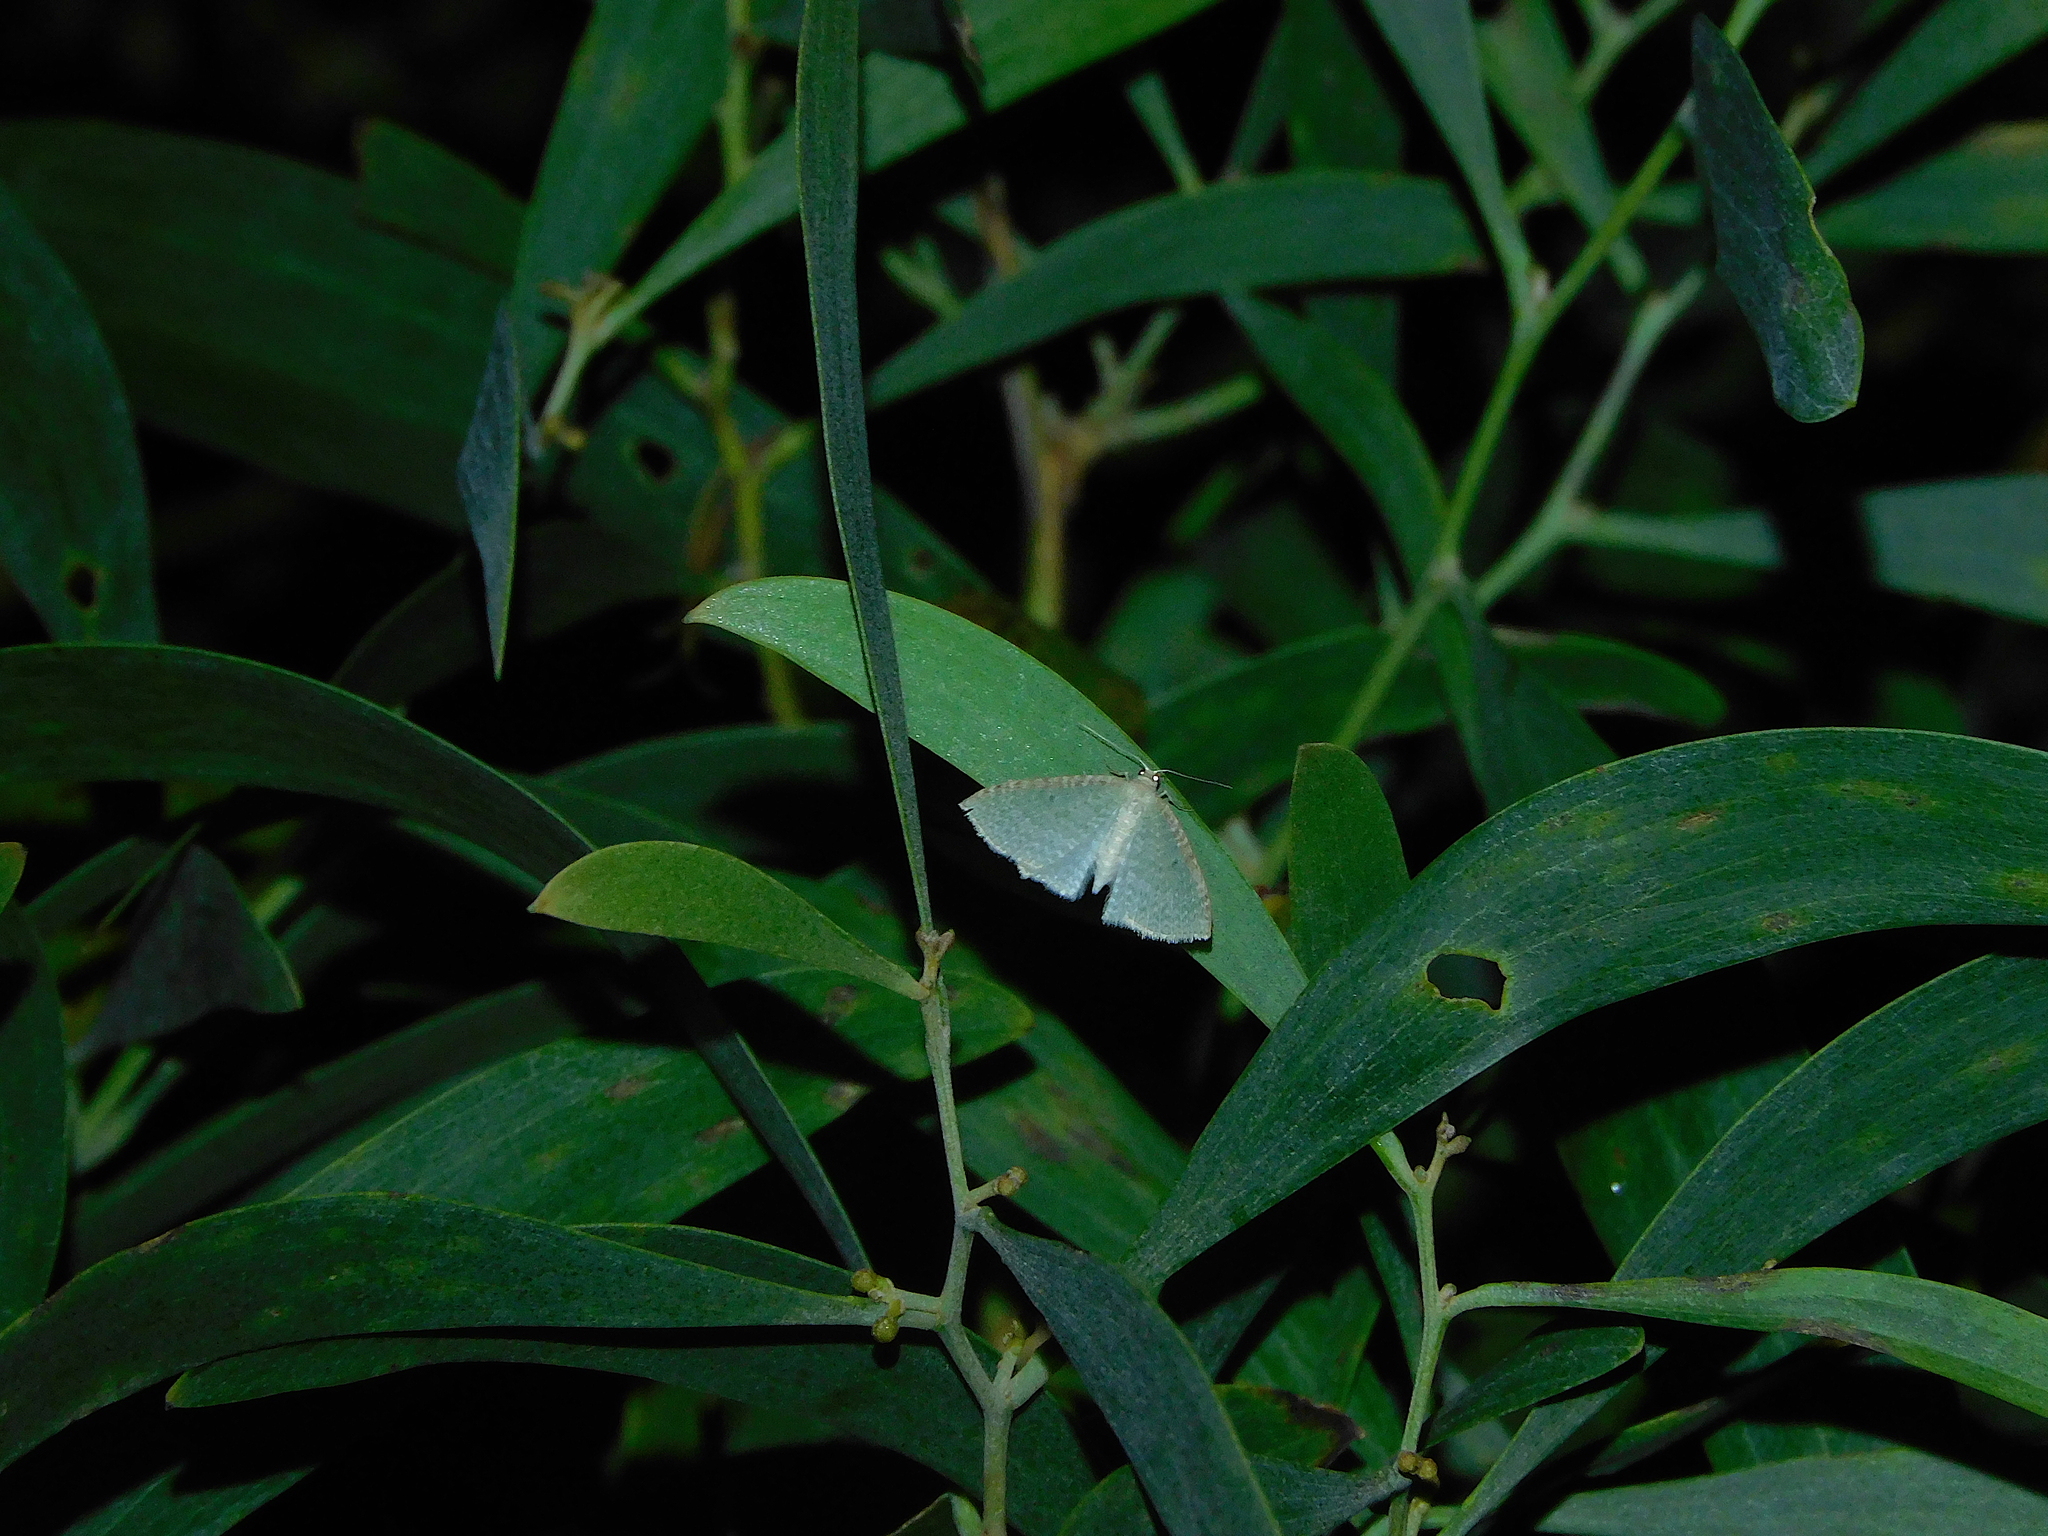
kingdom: Animalia
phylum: Arthropoda
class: Insecta
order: Lepidoptera
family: Geometridae
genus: Poecilasthena
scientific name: Poecilasthena pulchraria
